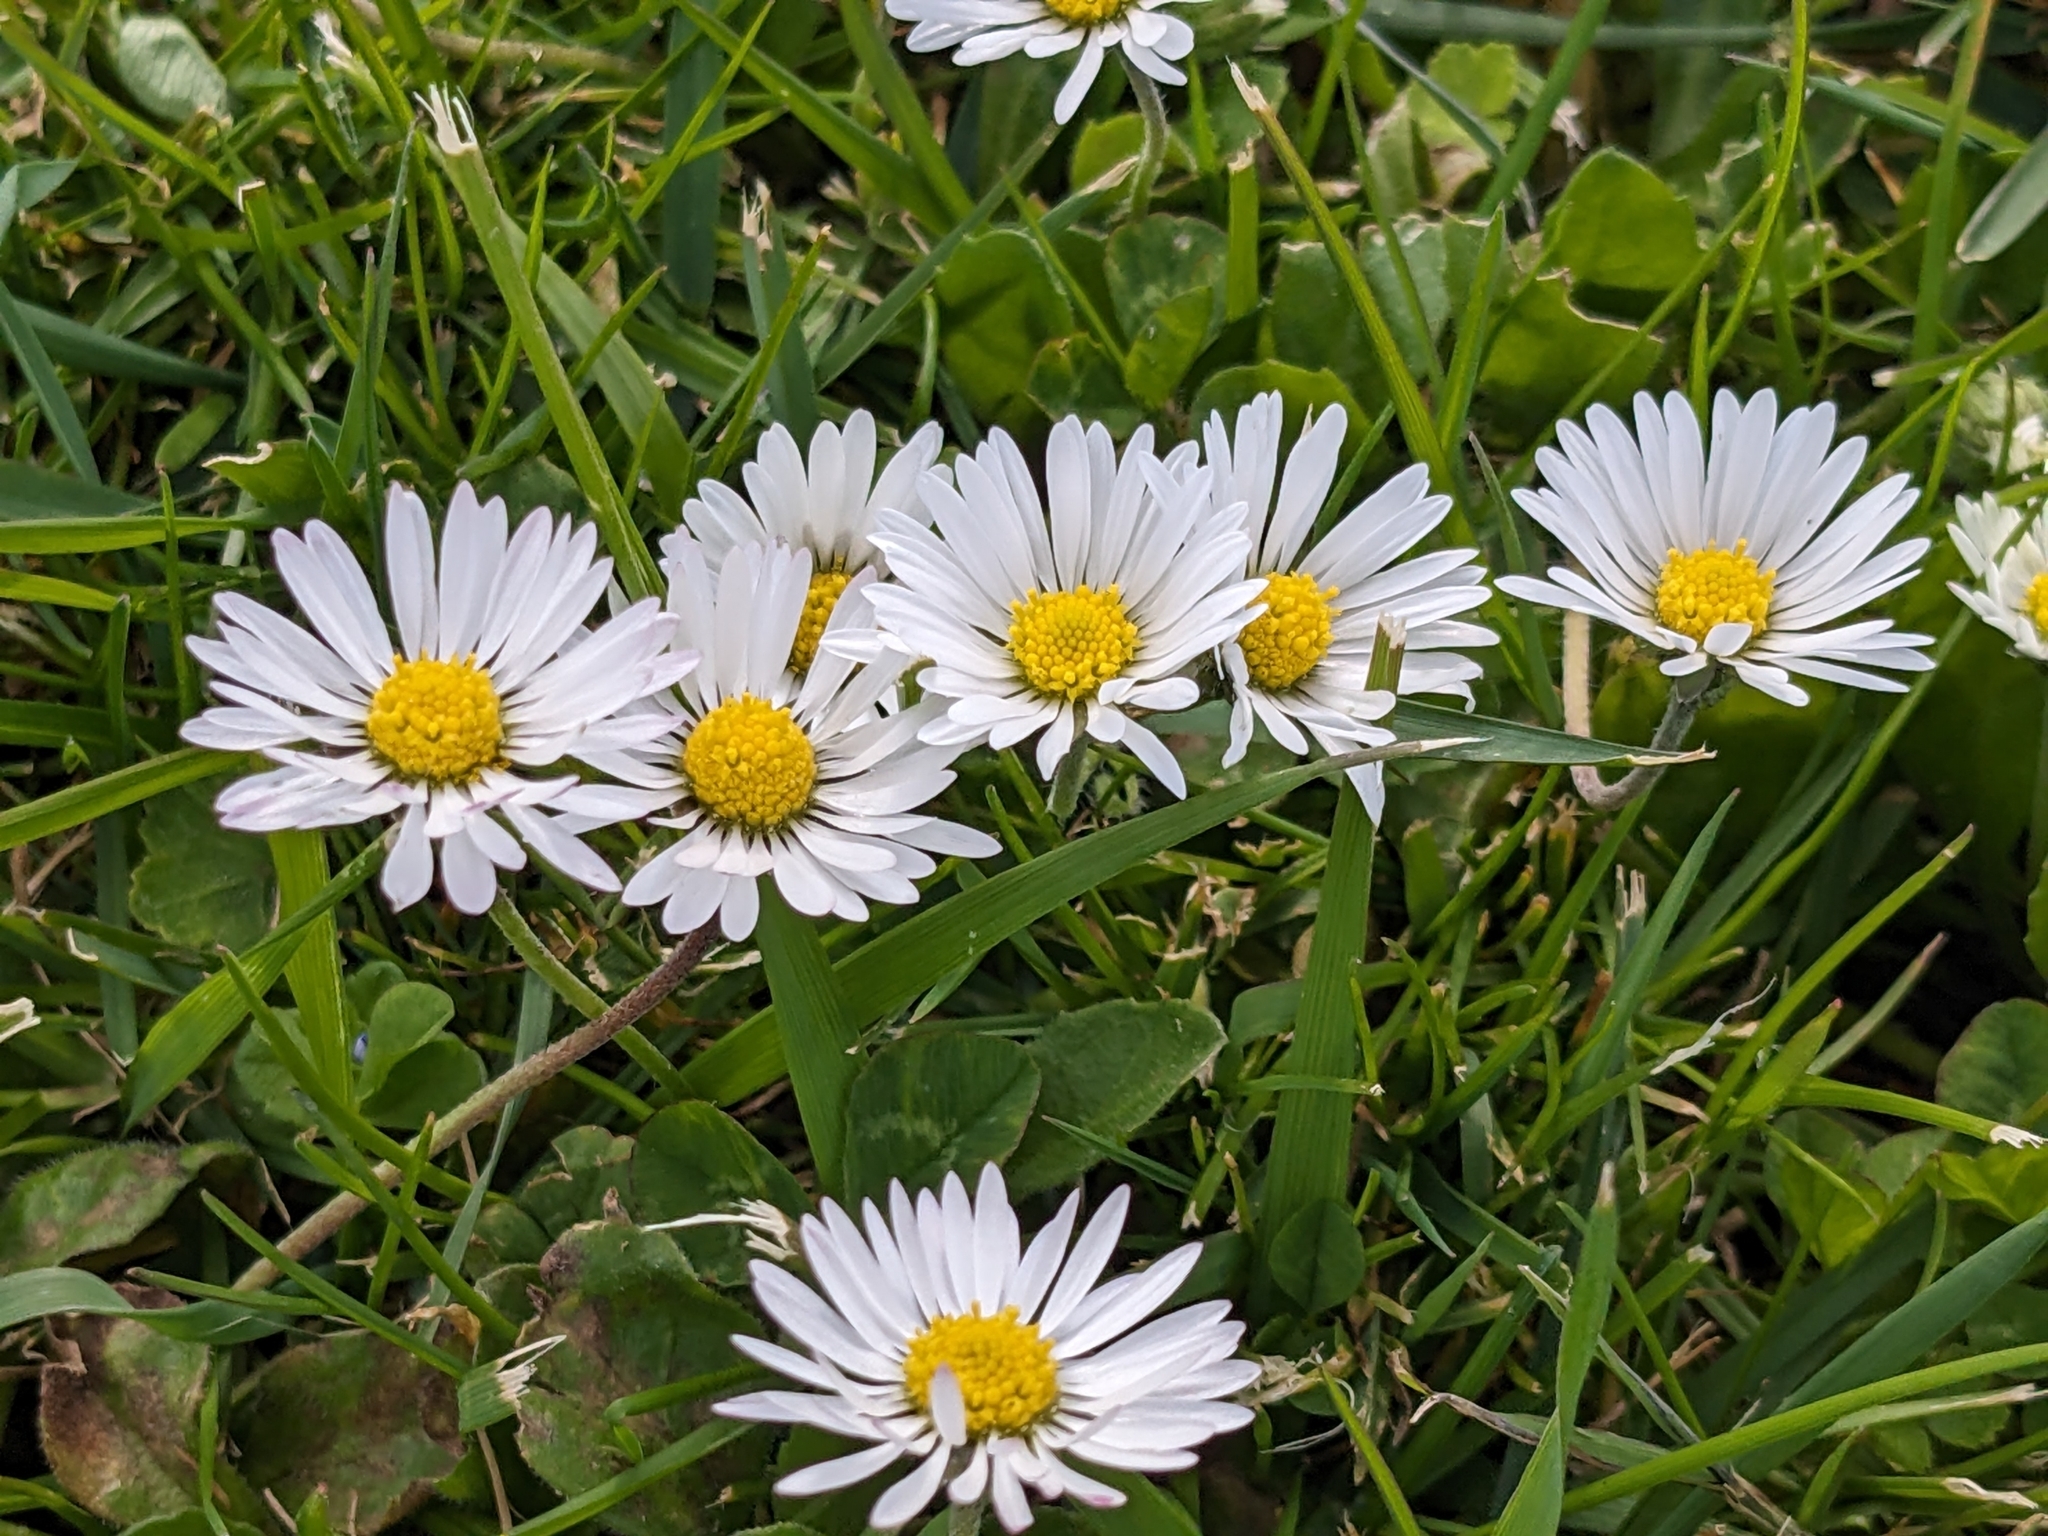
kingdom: Plantae
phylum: Tracheophyta
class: Magnoliopsida
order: Asterales
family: Asteraceae
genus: Bellis
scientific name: Bellis perennis
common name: Lawndaisy
